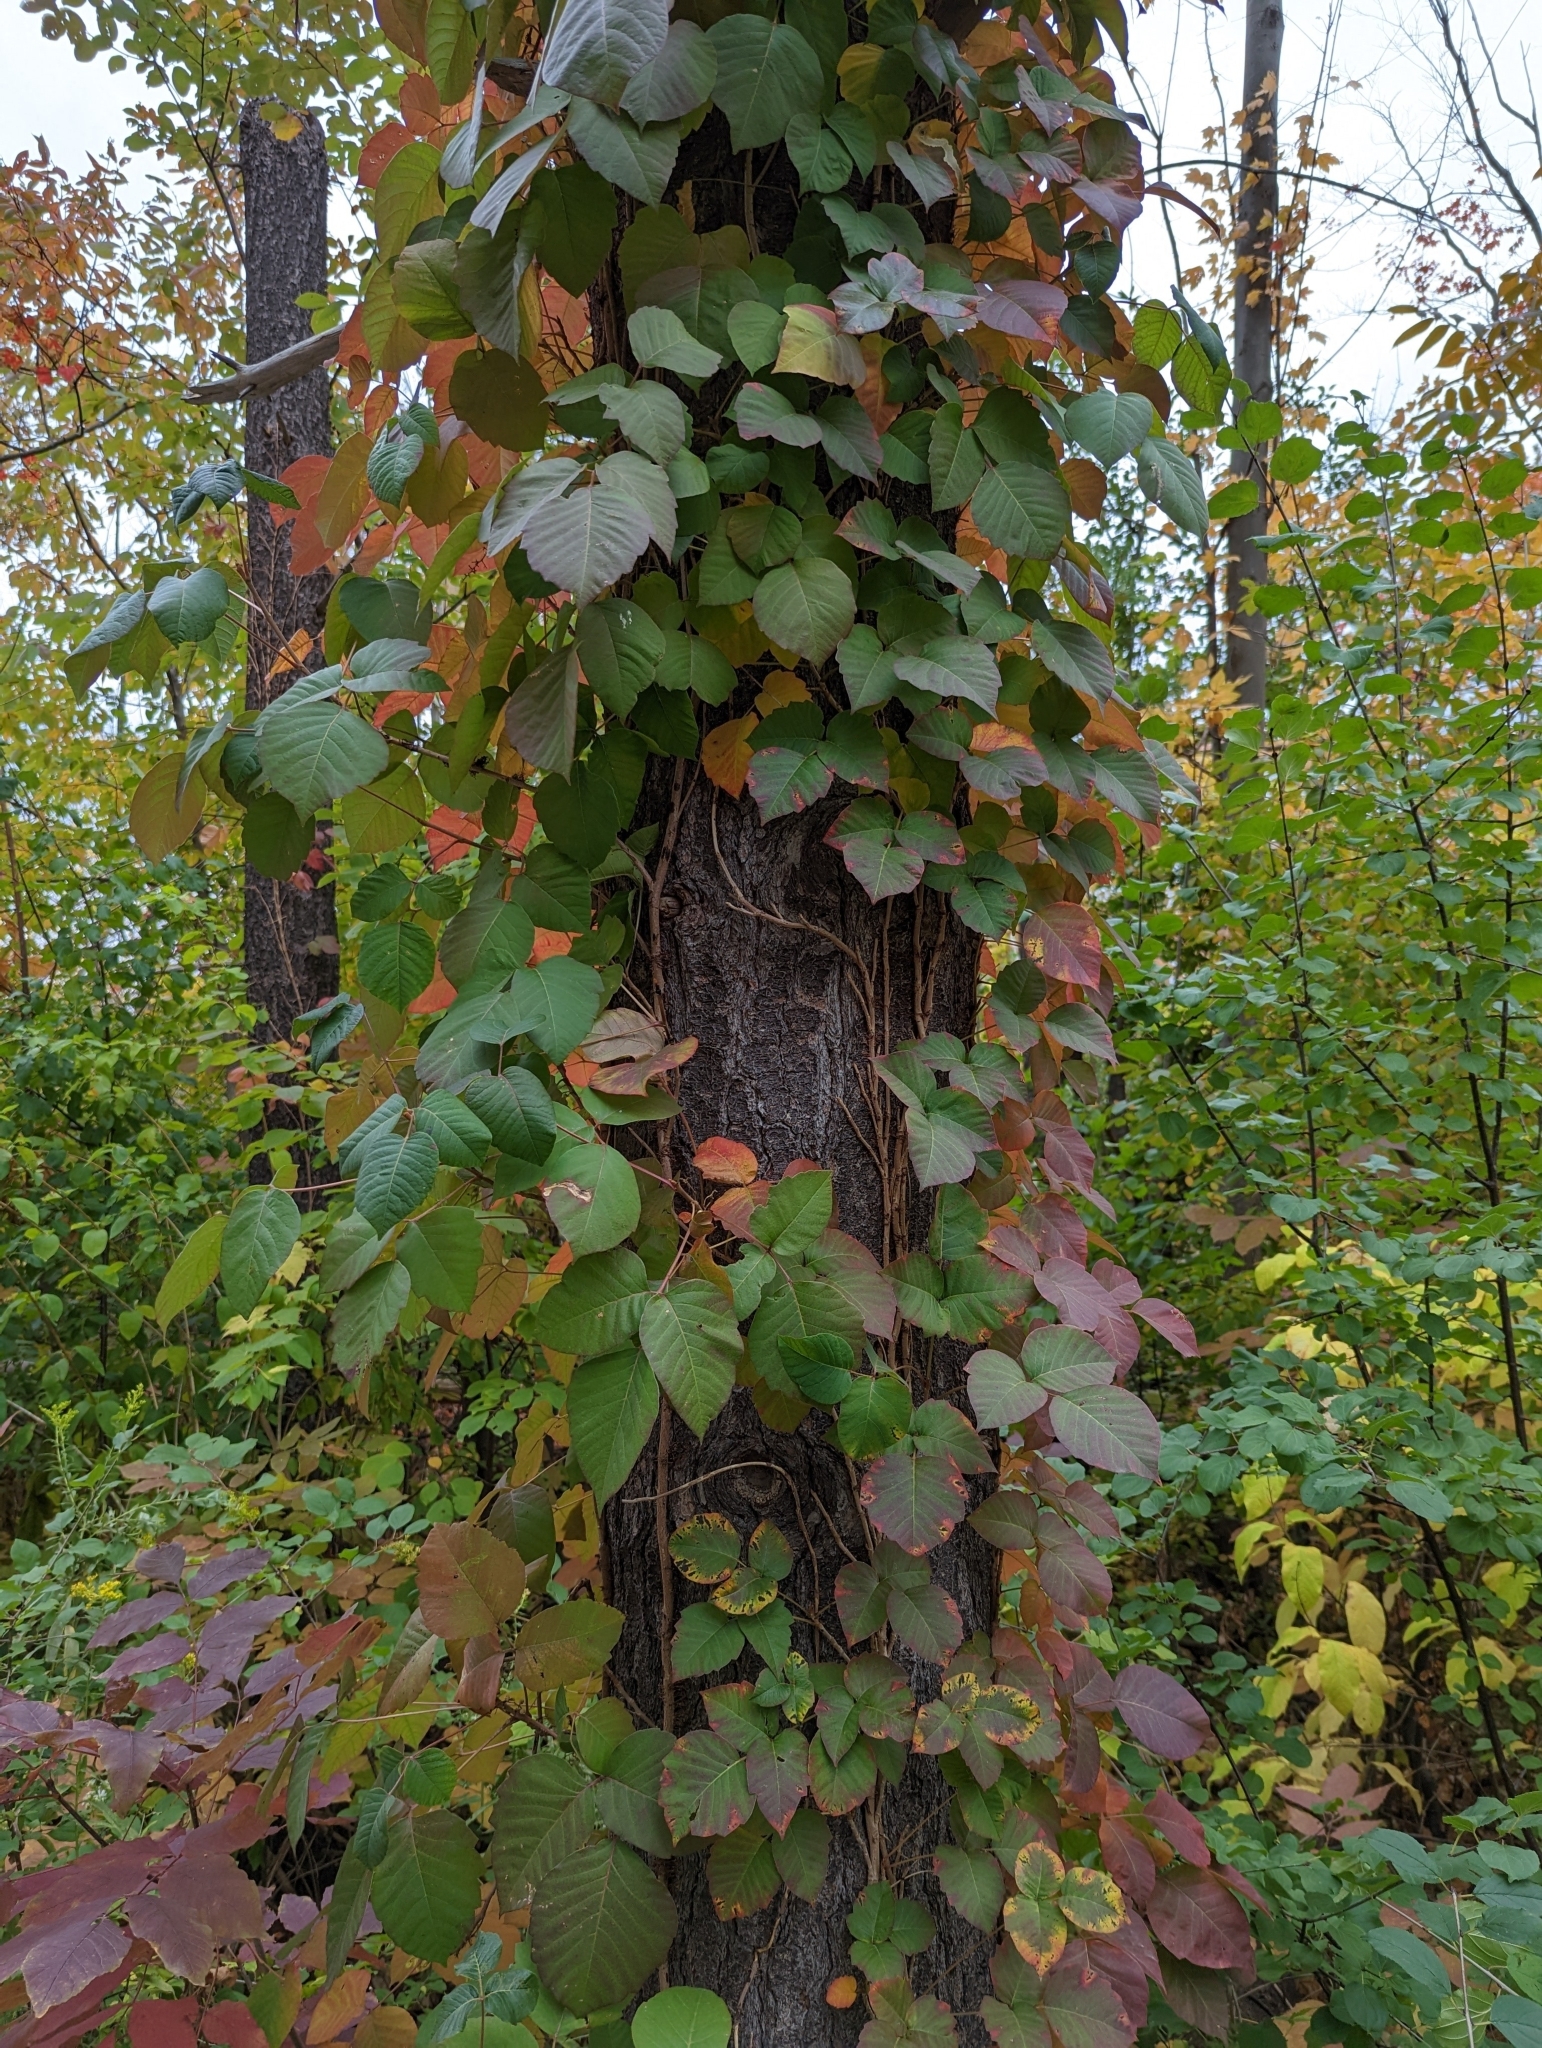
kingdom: Plantae
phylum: Tracheophyta
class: Magnoliopsida
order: Sapindales
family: Anacardiaceae
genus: Toxicodendron
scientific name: Toxicodendron radicans
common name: Poison ivy
